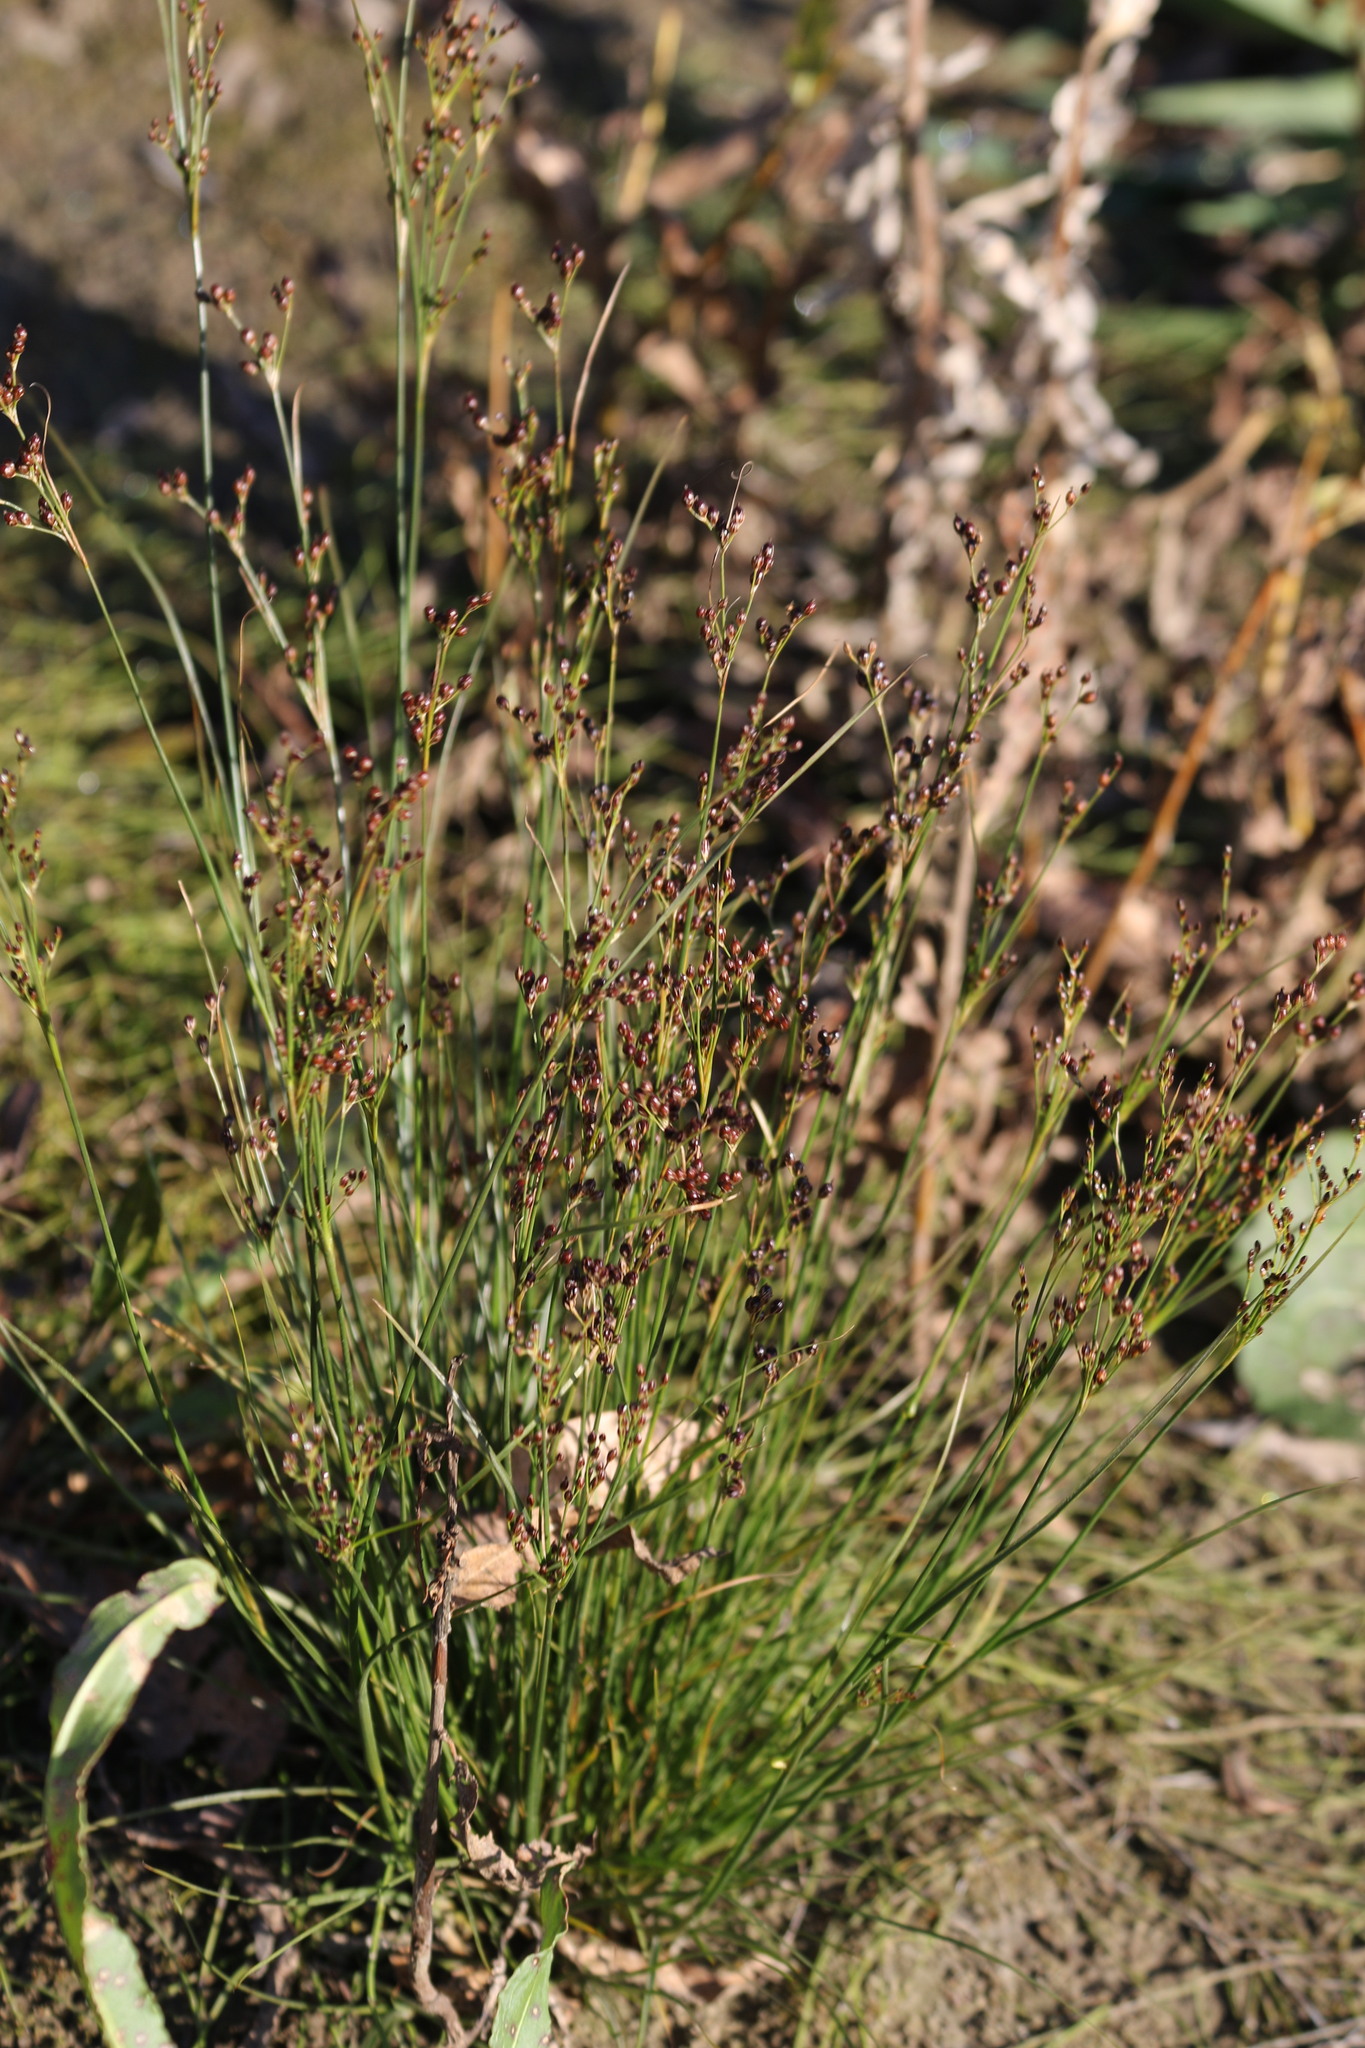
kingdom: Plantae
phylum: Tracheophyta
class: Liliopsida
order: Poales
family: Juncaceae
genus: Juncus
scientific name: Juncus compressus
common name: Round-fruited rush
